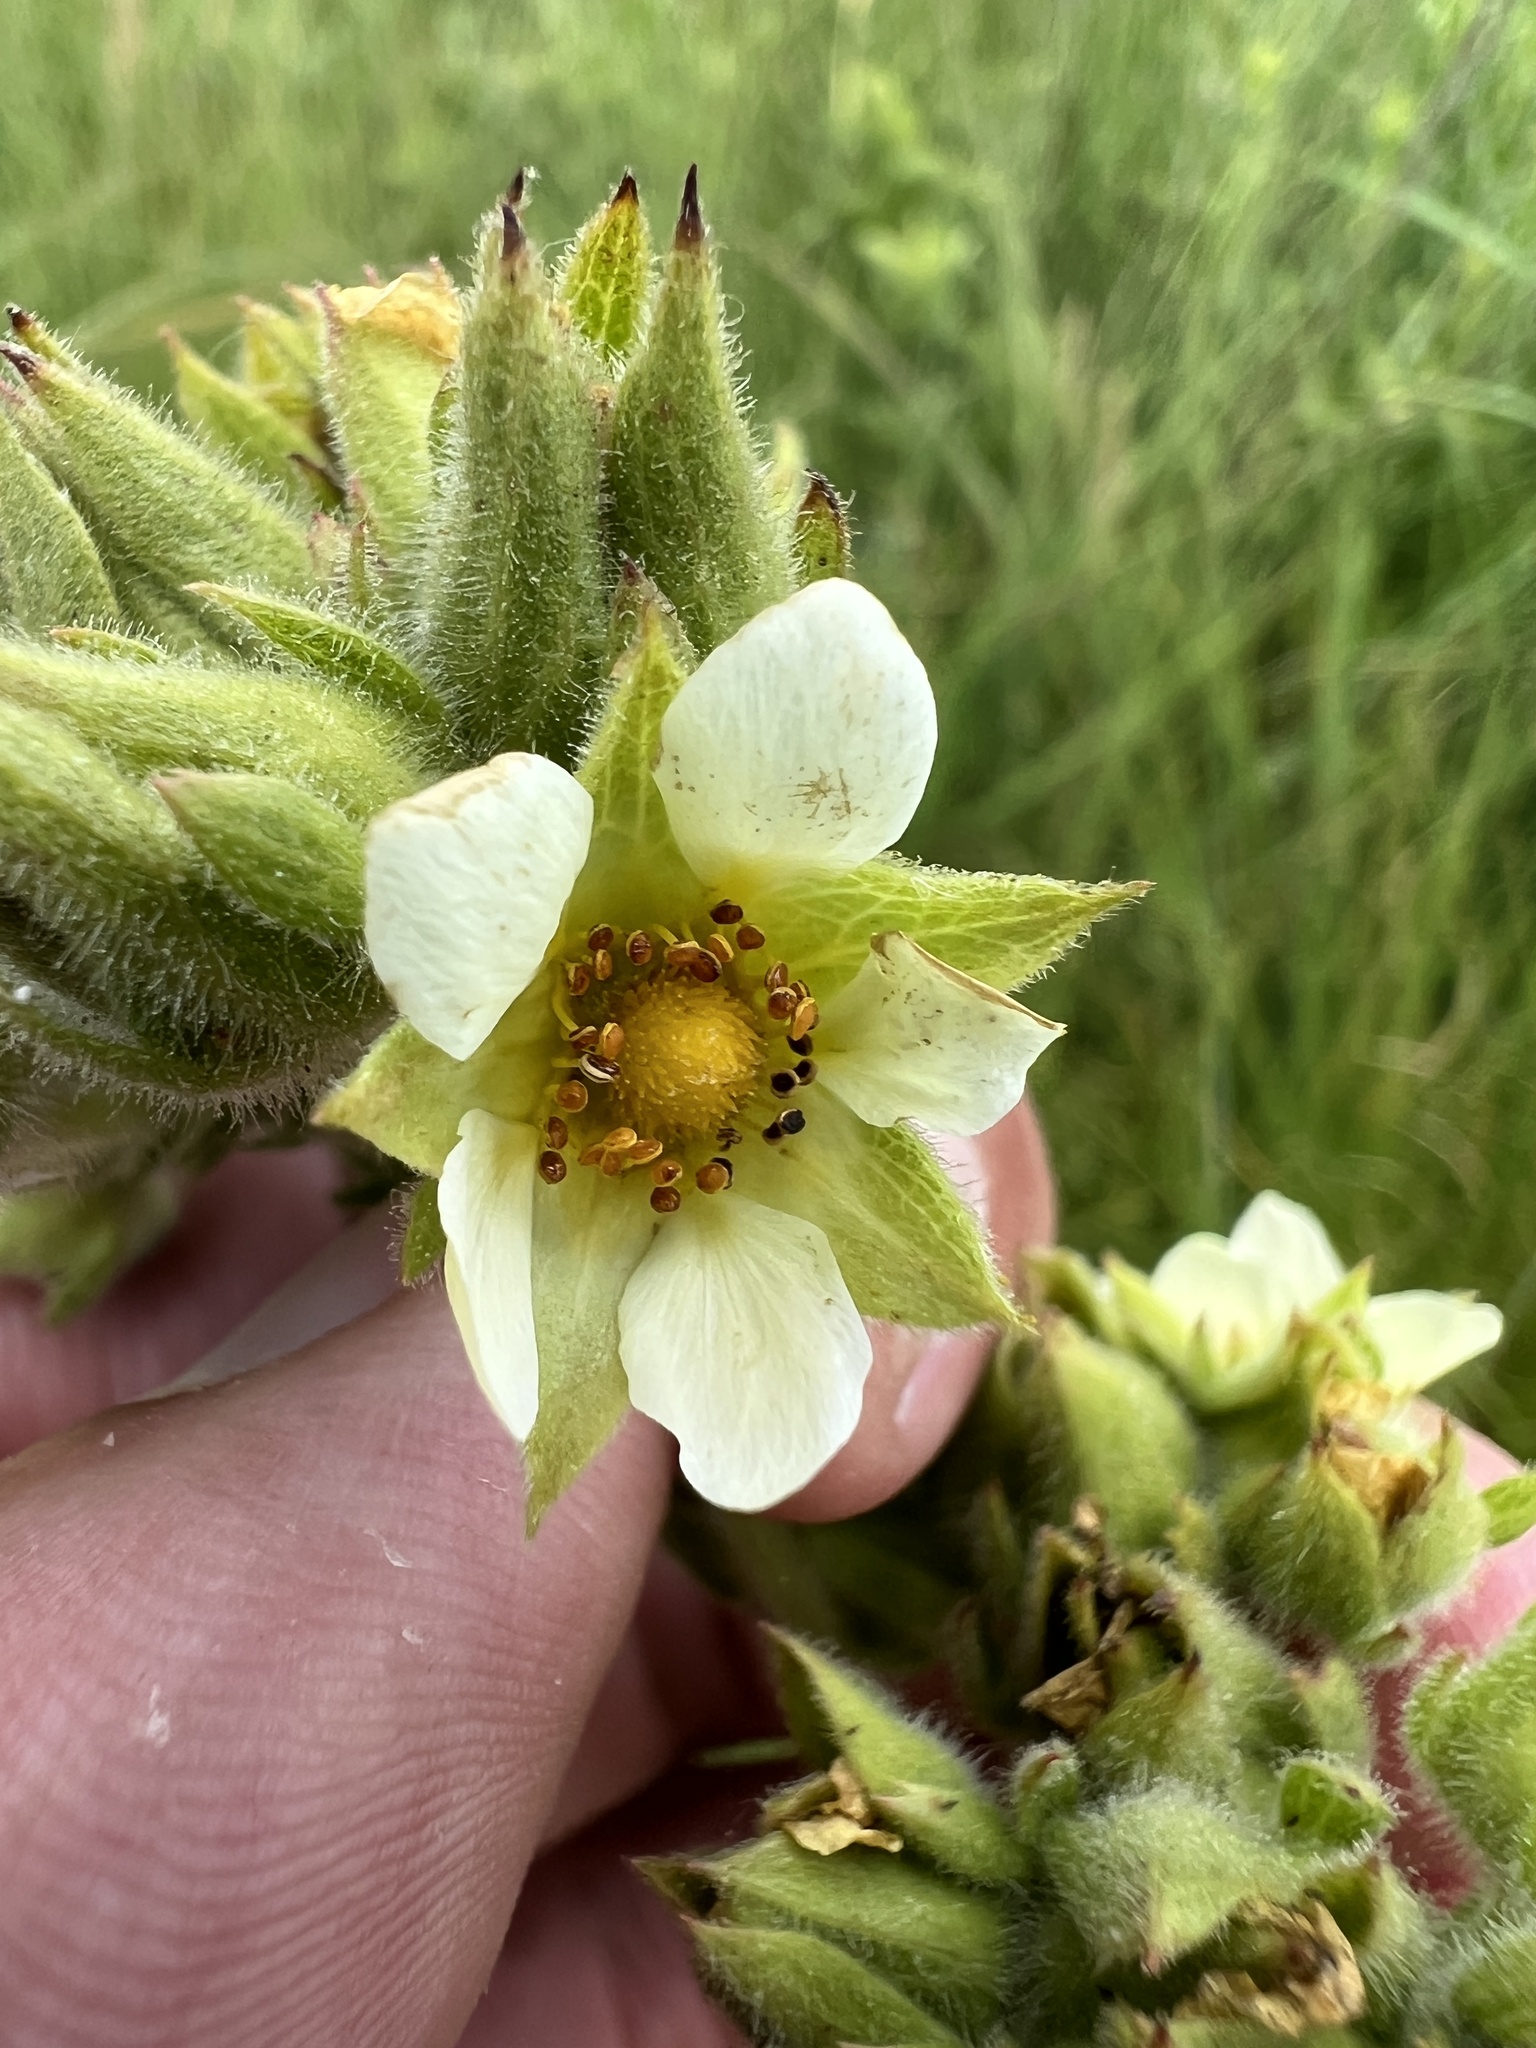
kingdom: Plantae
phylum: Tracheophyta
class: Magnoliopsida
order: Rosales
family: Rosaceae
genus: Drymocallis
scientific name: Drymocallis arguta
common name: Tall cinquefoil
